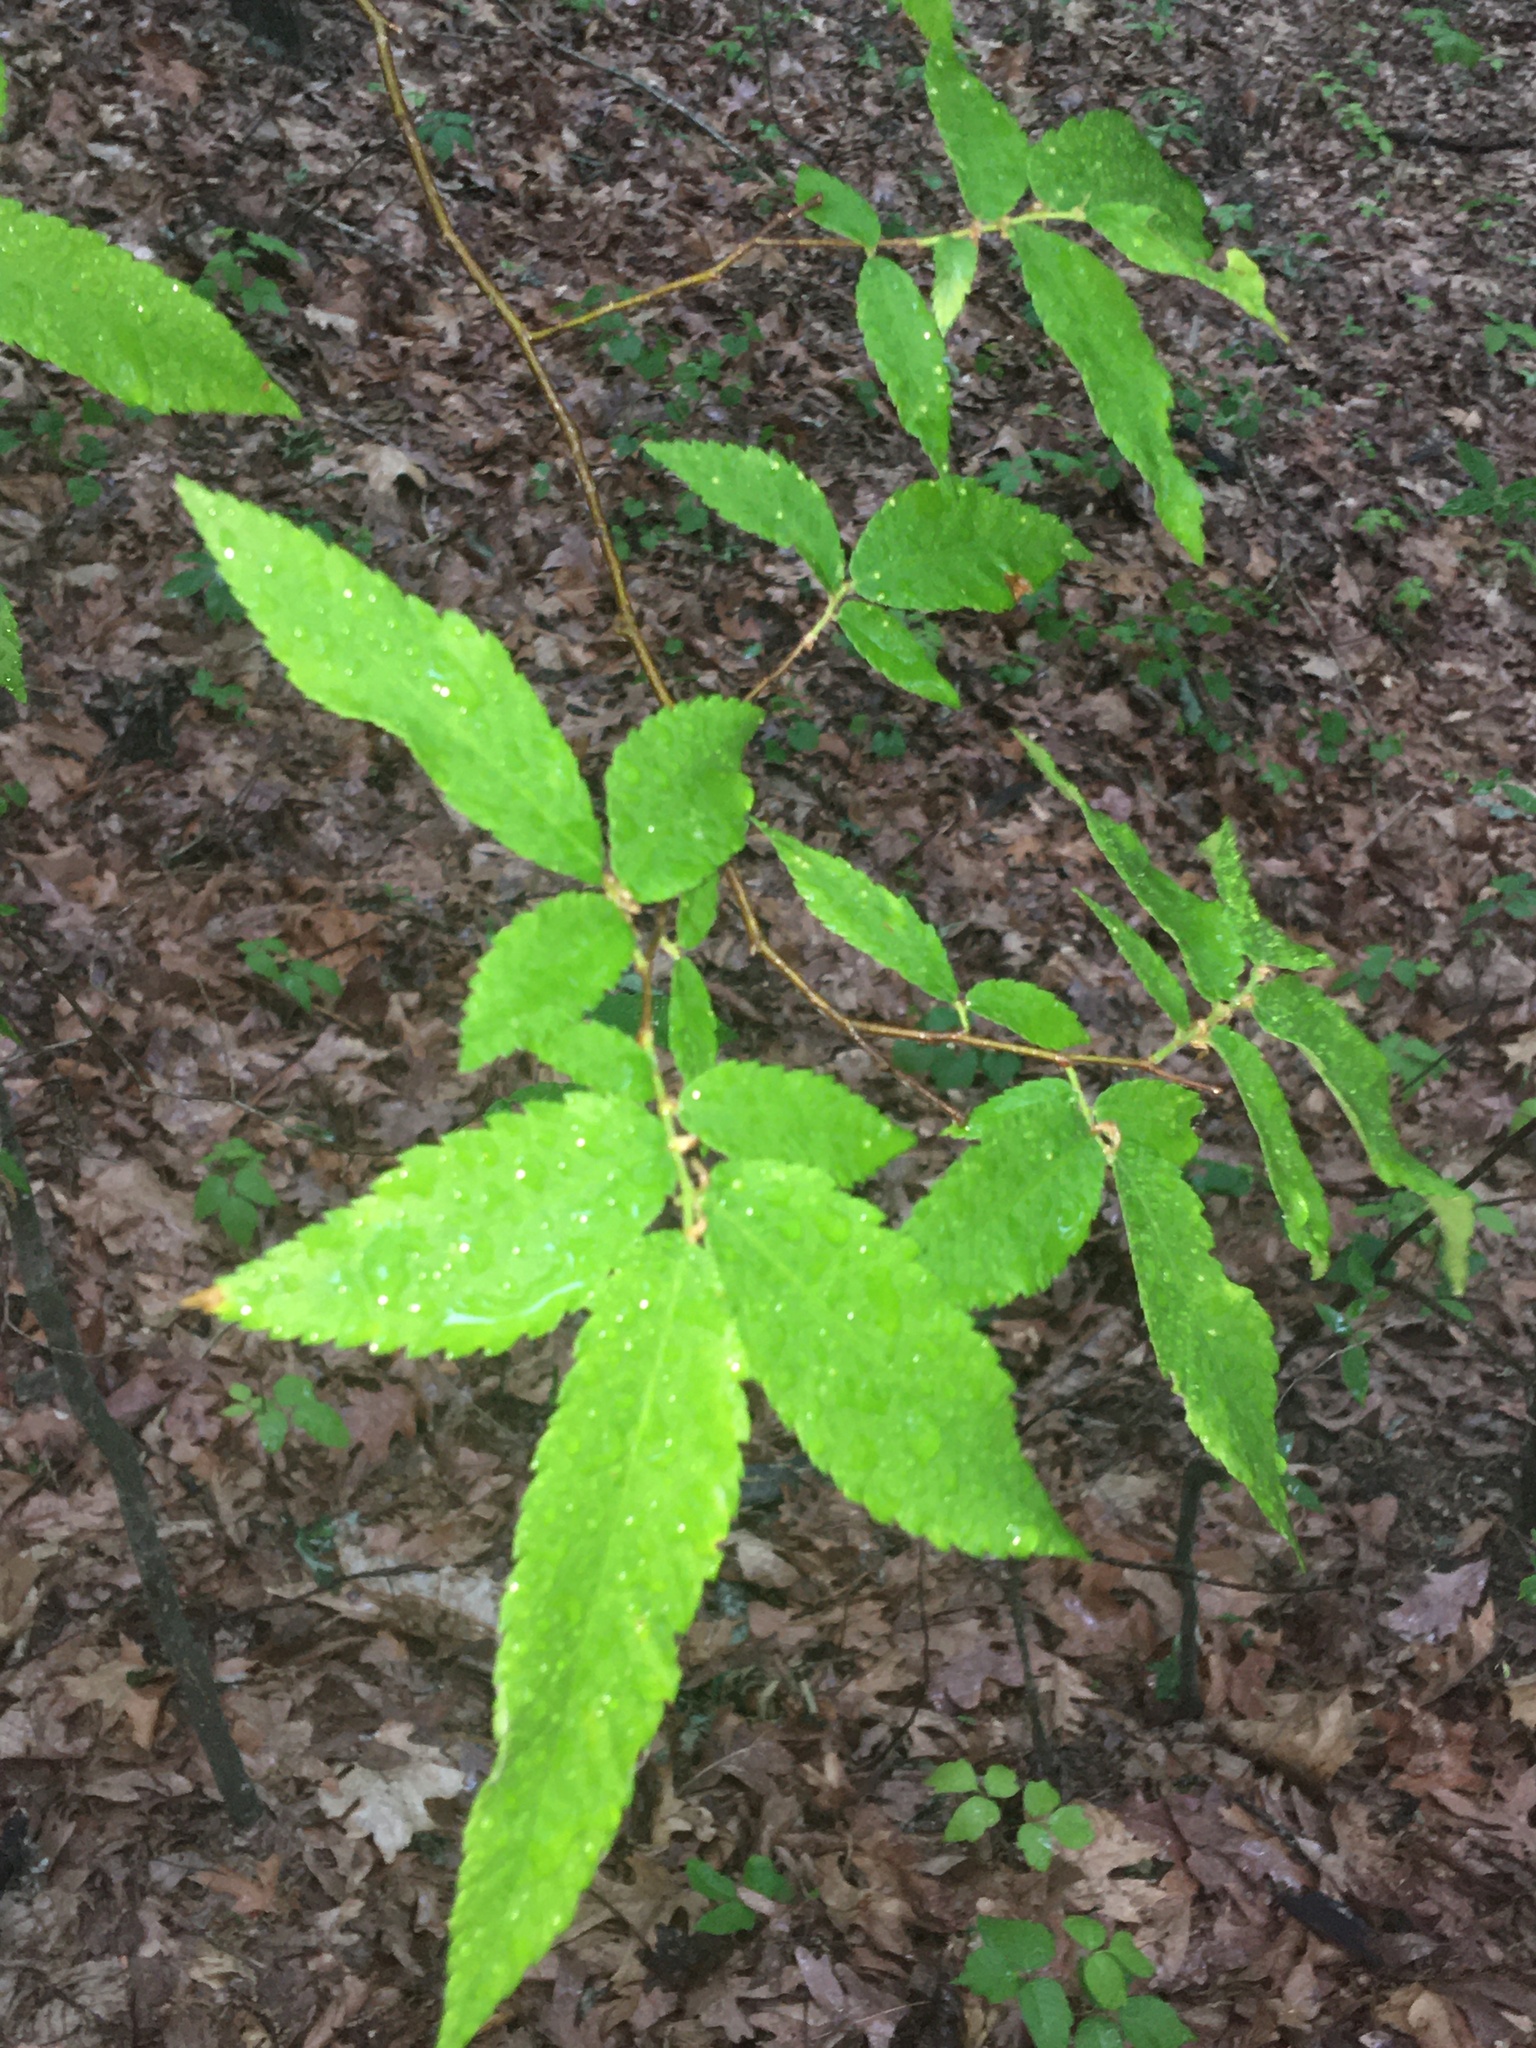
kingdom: Plantae
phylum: Tracheophyta
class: Magnoliopsida
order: Rosales
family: Ulmaceae
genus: Ulmus
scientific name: Ulmus alata
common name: Winged elm
